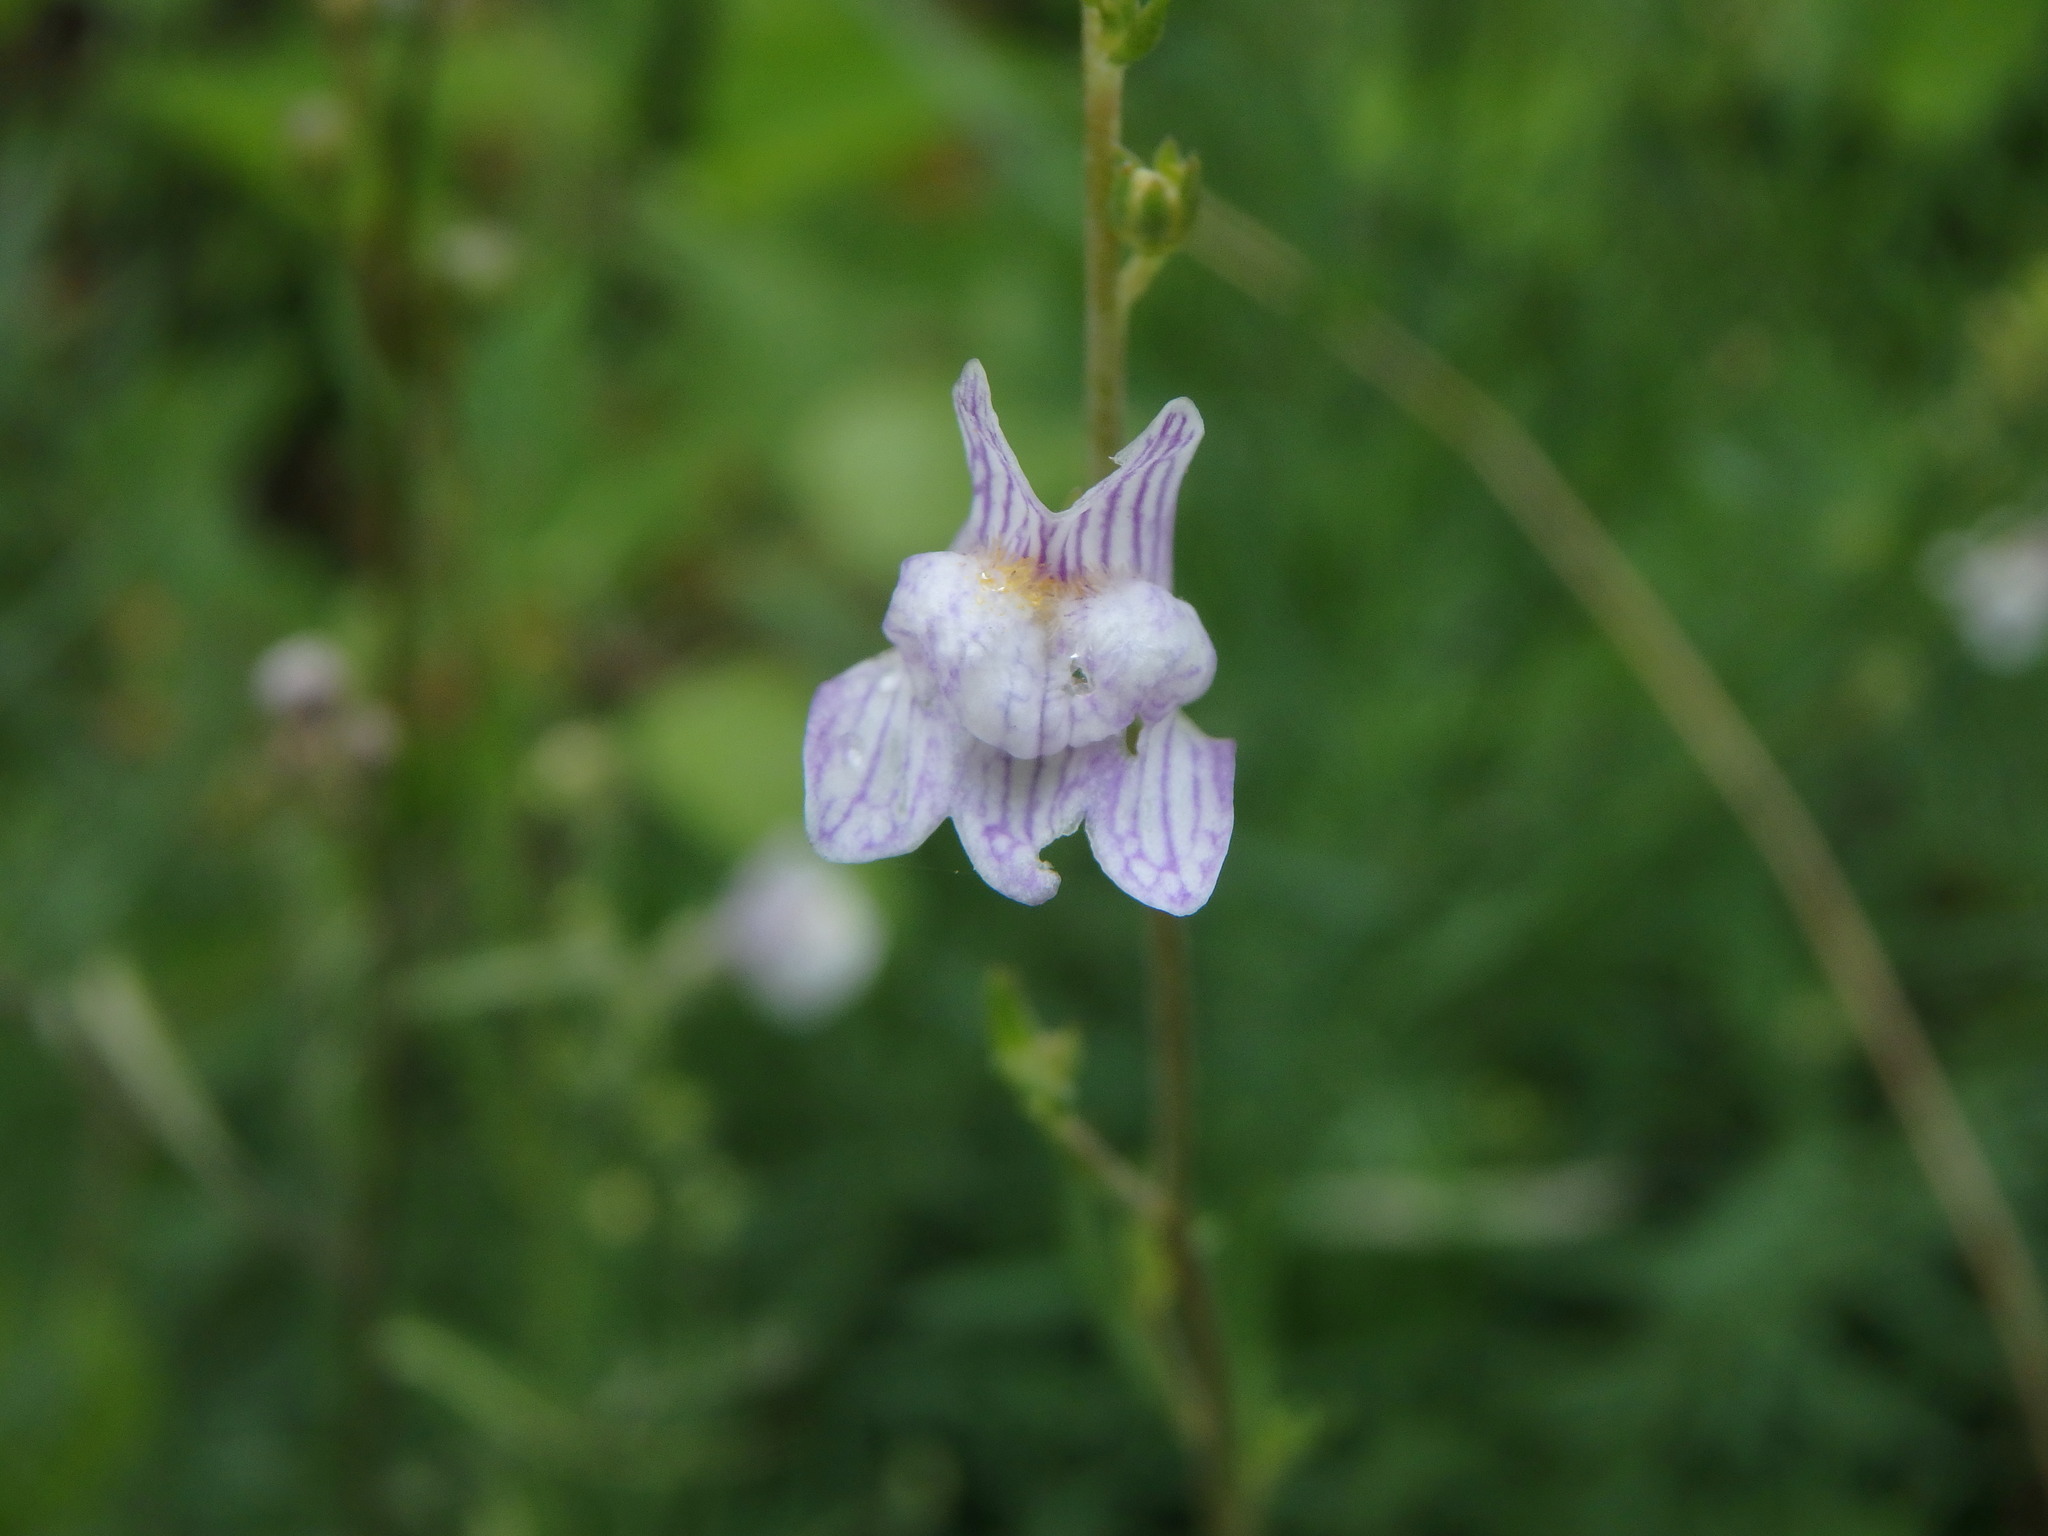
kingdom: Plantae
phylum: Tracheophyta
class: Magnoliopsida
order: Lamiales
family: Plantaginaceae
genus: Linaria
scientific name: Linaria repens
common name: Pale toadflax
